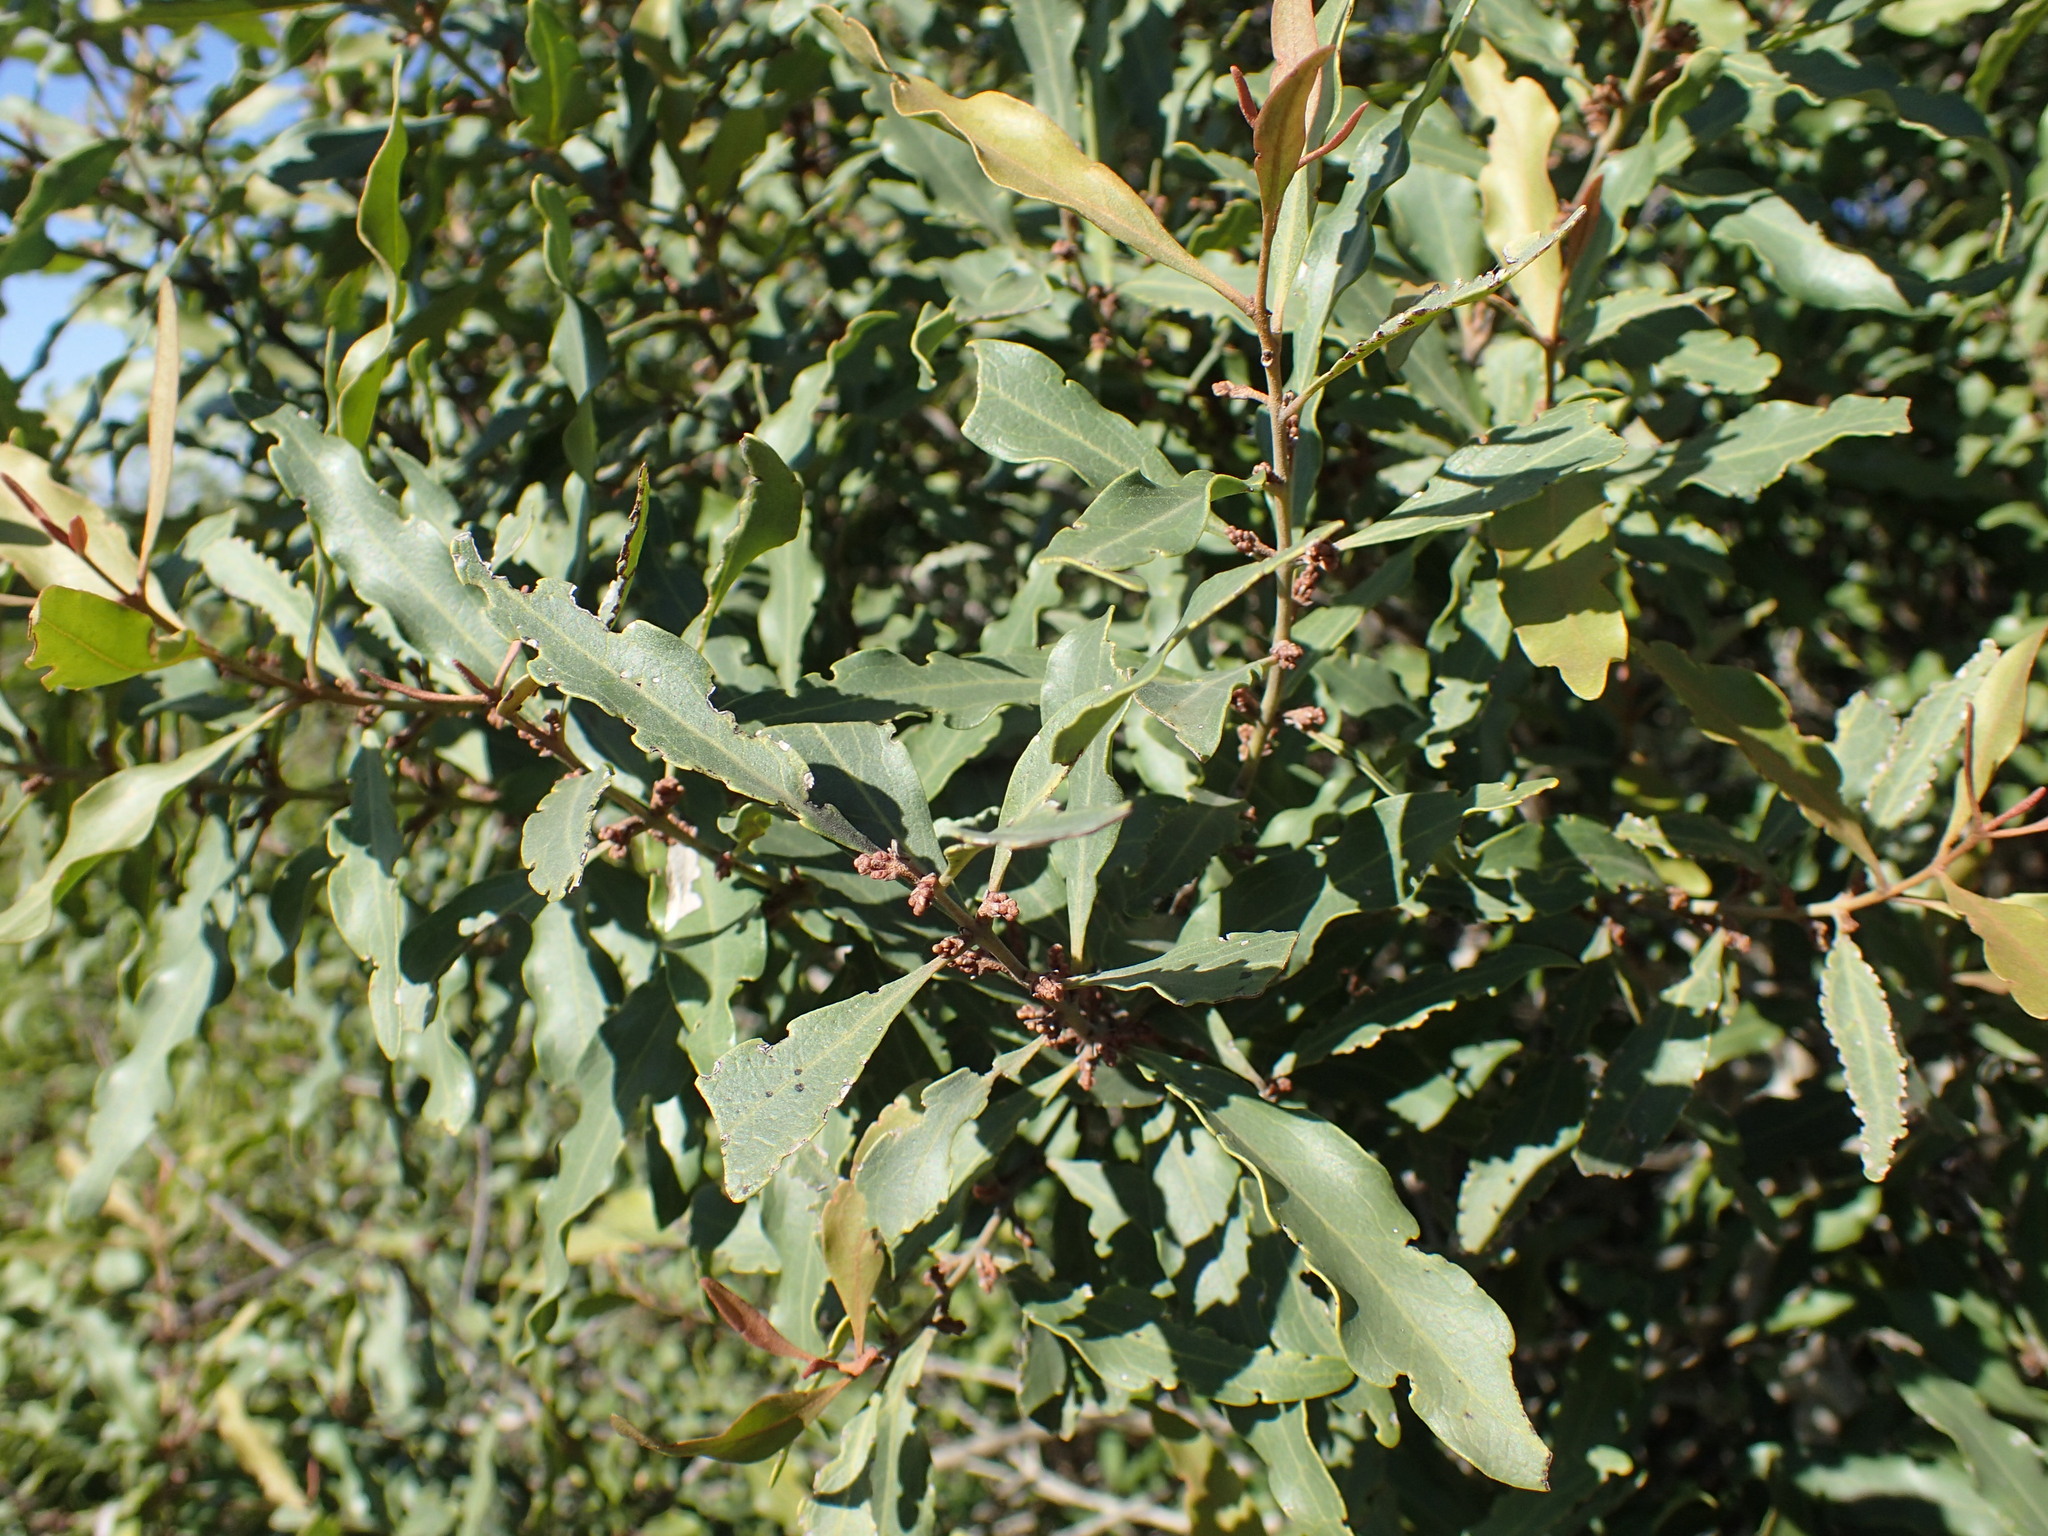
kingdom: Plantae
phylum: Tracheophyta
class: Magnoliopsida
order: Ericales
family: Ebenaceae
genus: Euclea
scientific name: Euclea divinorum
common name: Diamond-leaved euclea
